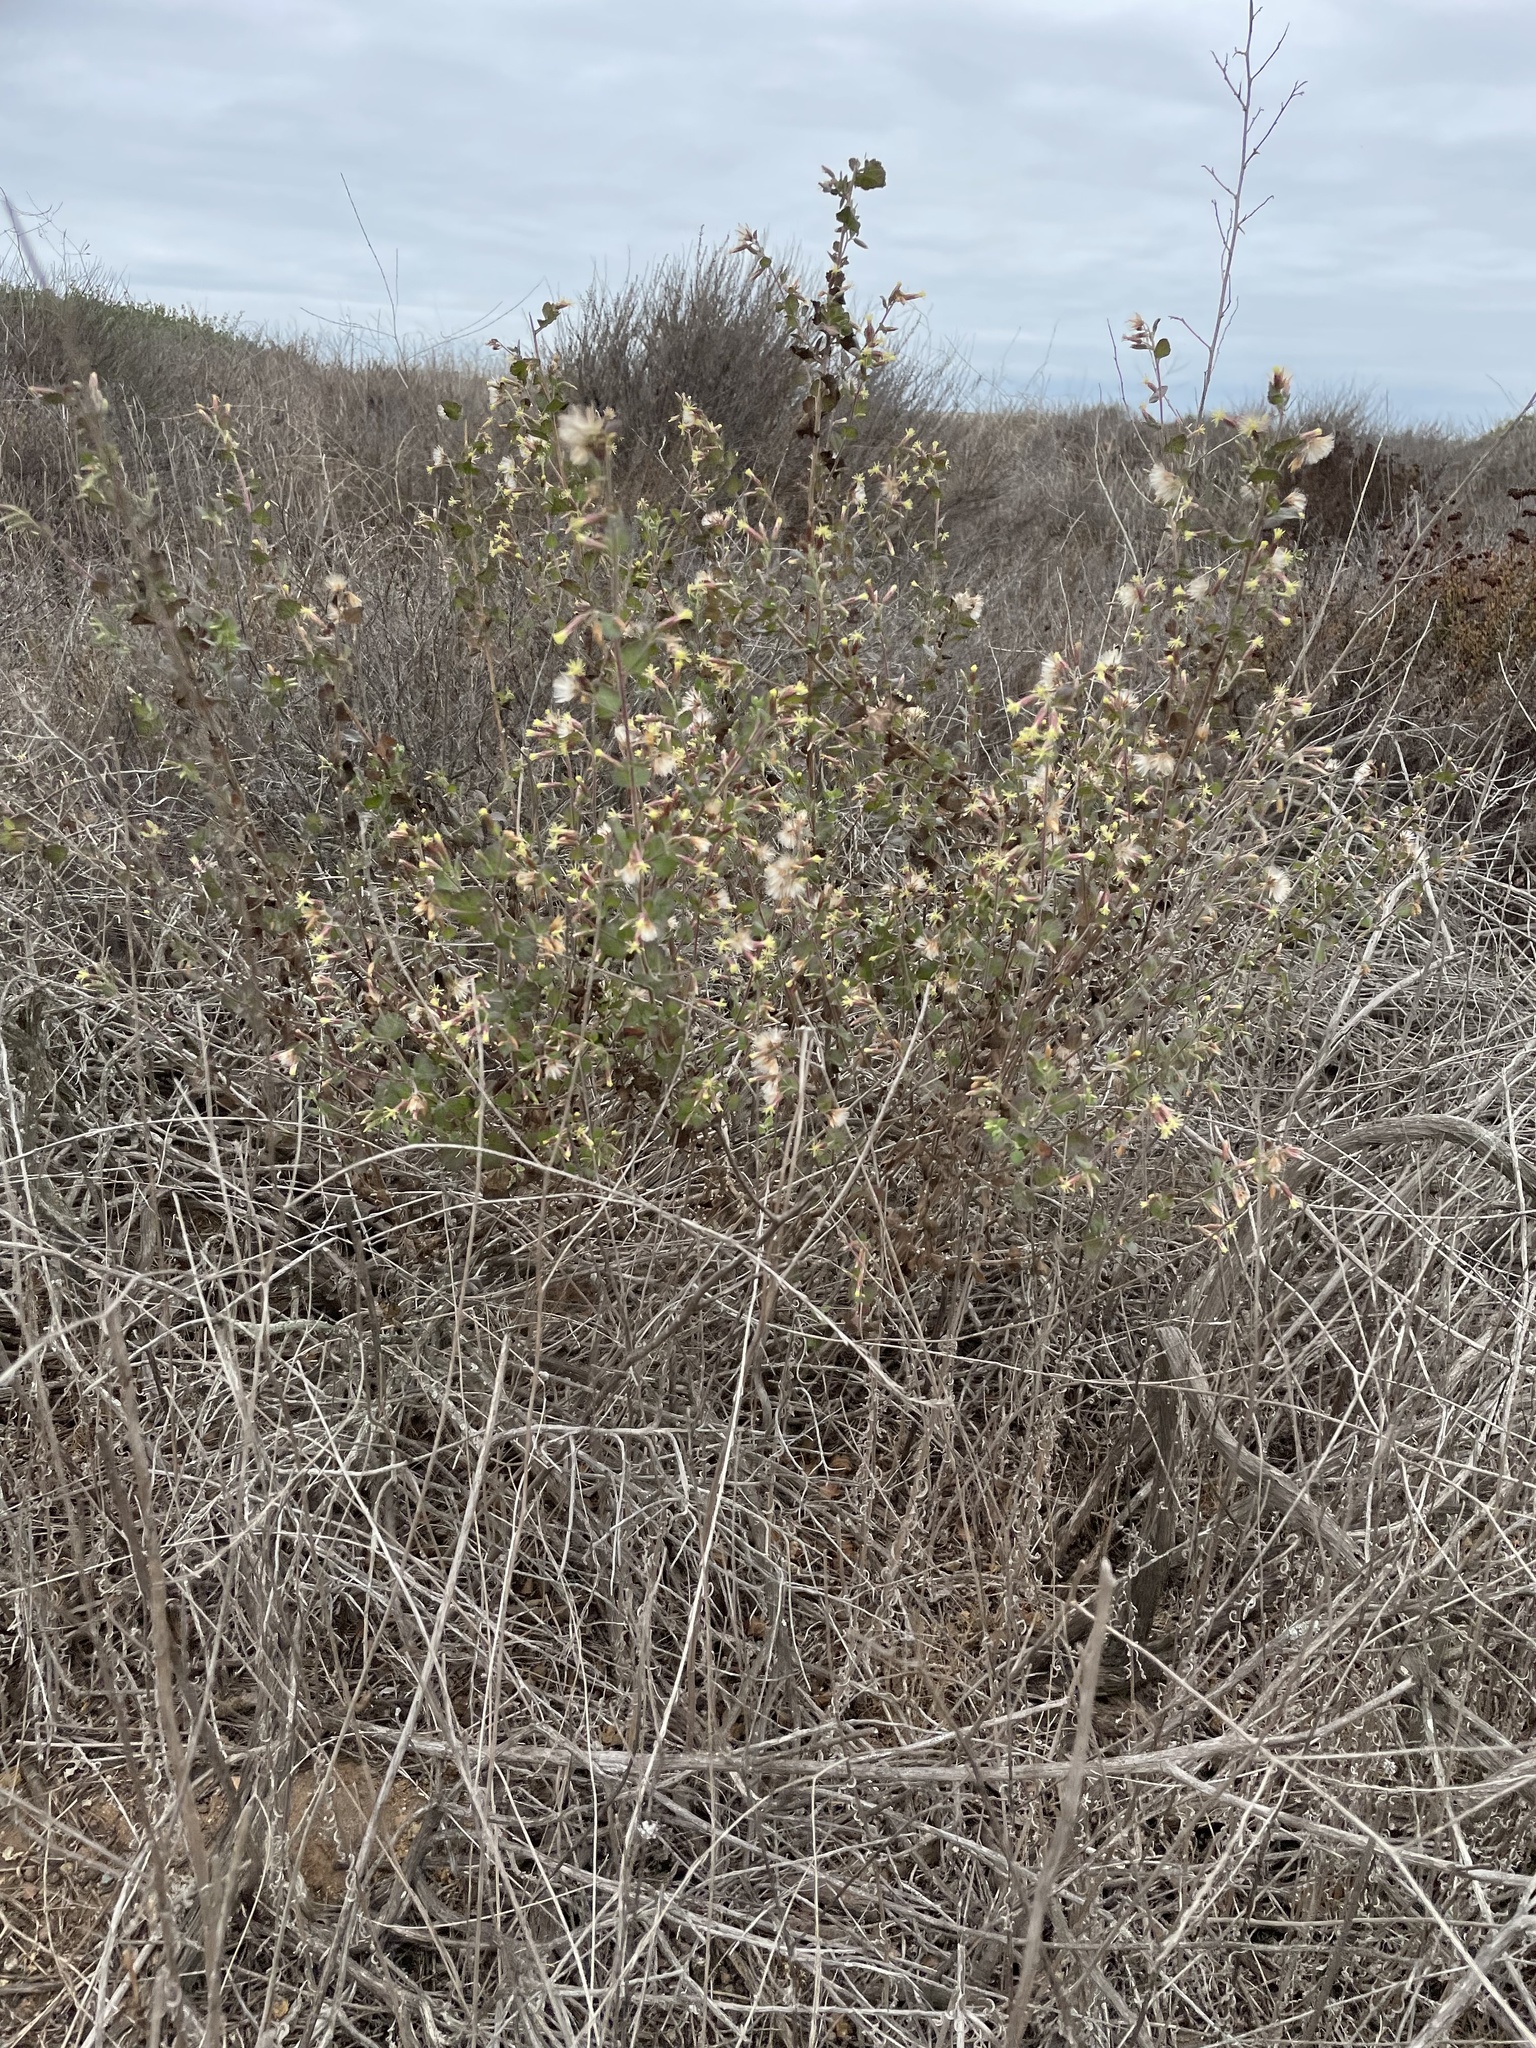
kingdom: Plantae
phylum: Tracheophyta
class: Magnoliopsida
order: Asterales
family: Asteraceae
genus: Brickellia
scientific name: Brickellia californica
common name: California brickellbush
